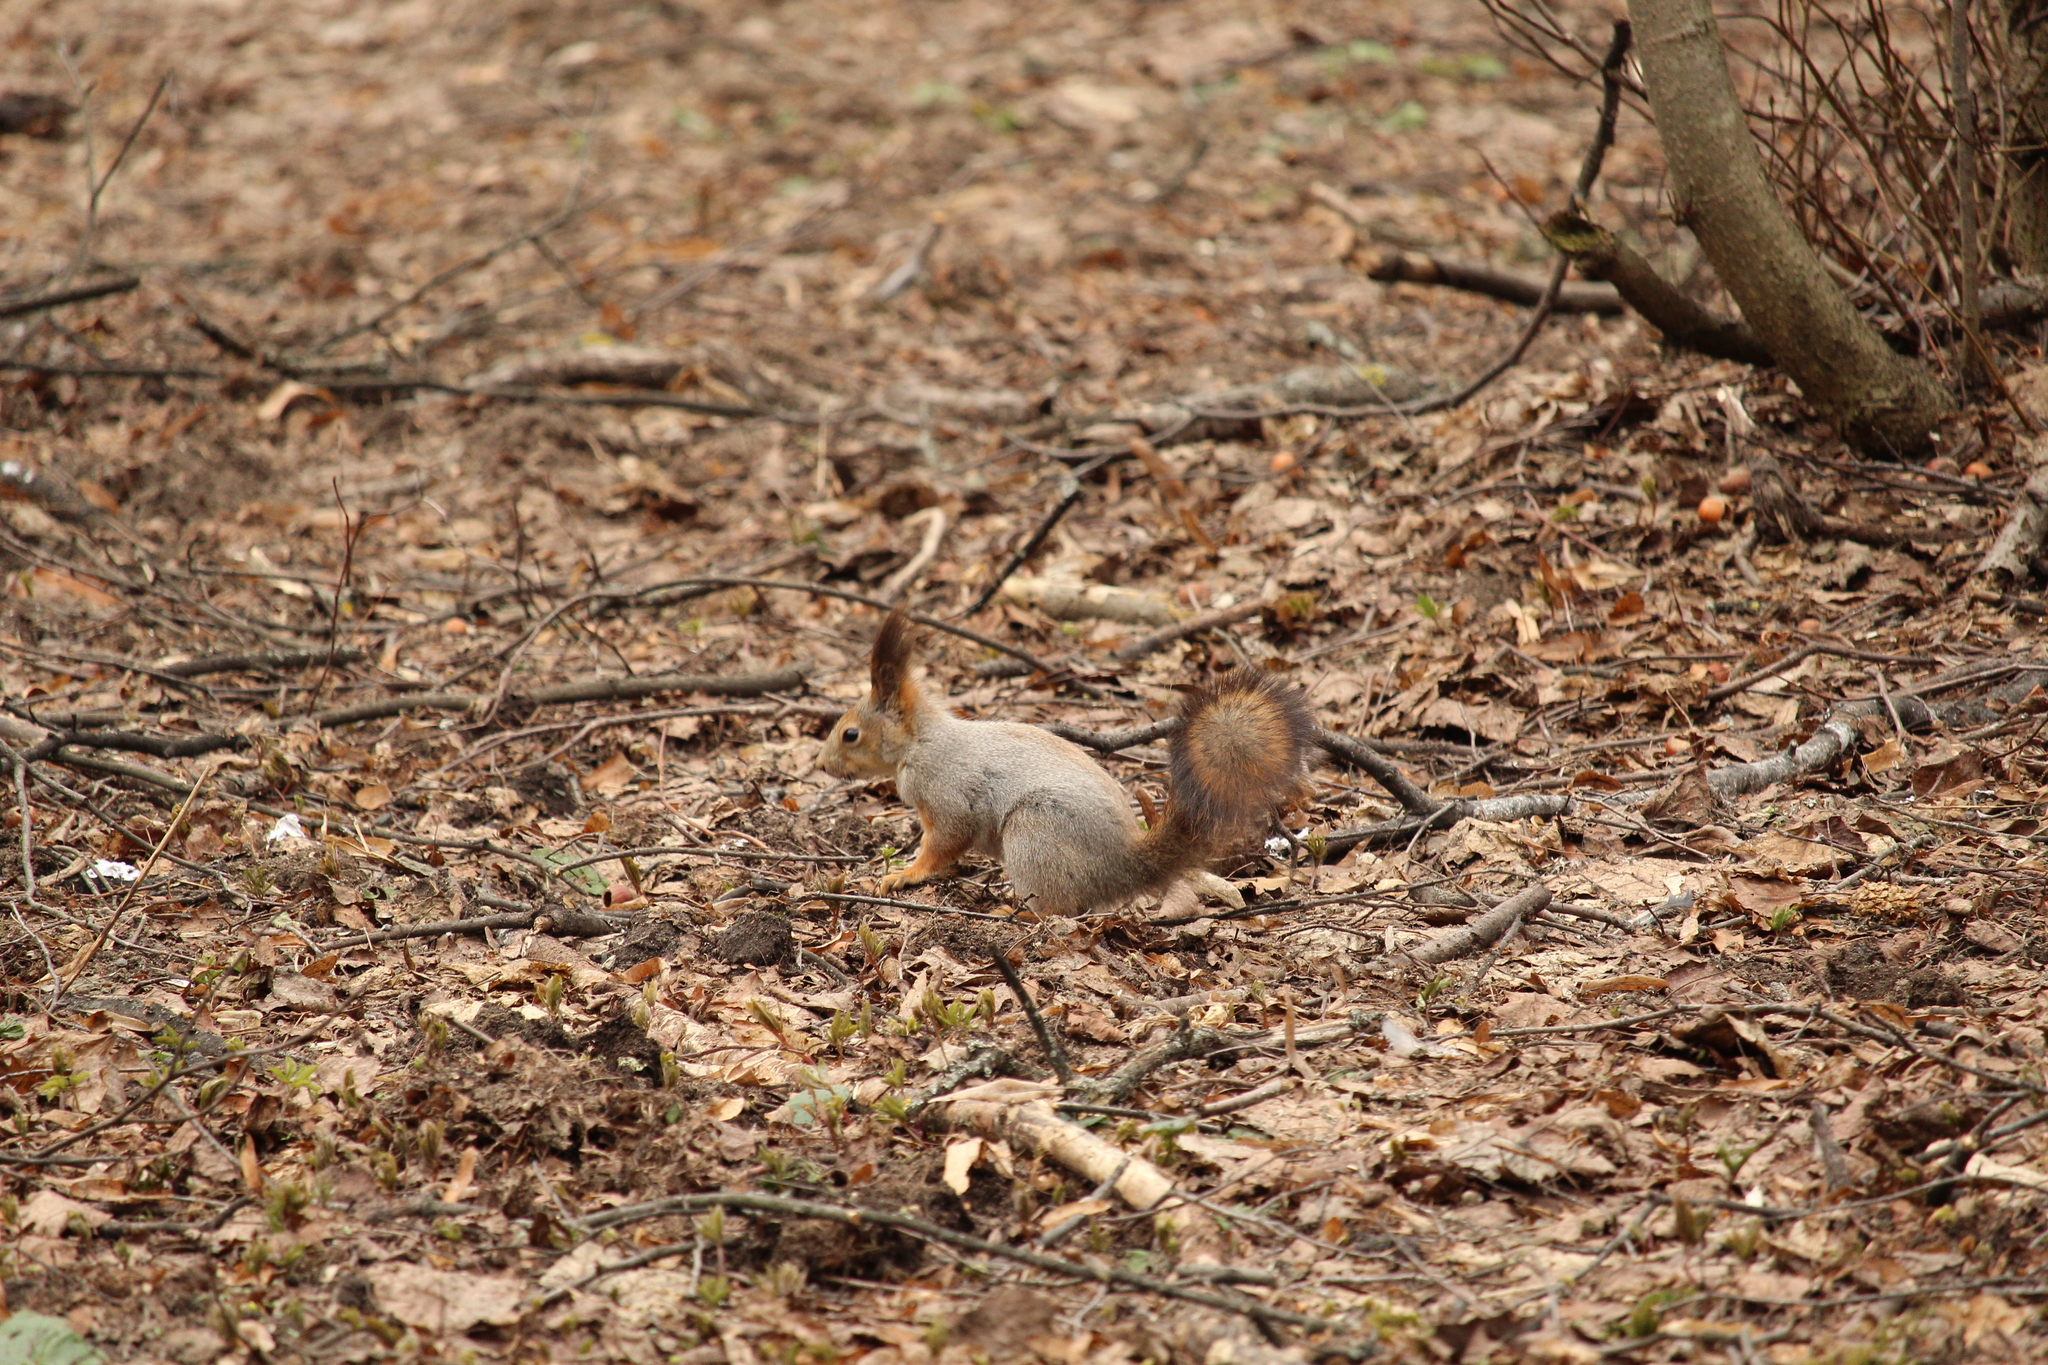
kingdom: Animalia
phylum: Chordata
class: Mammalia
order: Rodentia
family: Sciuridae
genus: Sciurus
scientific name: Sciurus vulgaris
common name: Eurasian red squirrel
